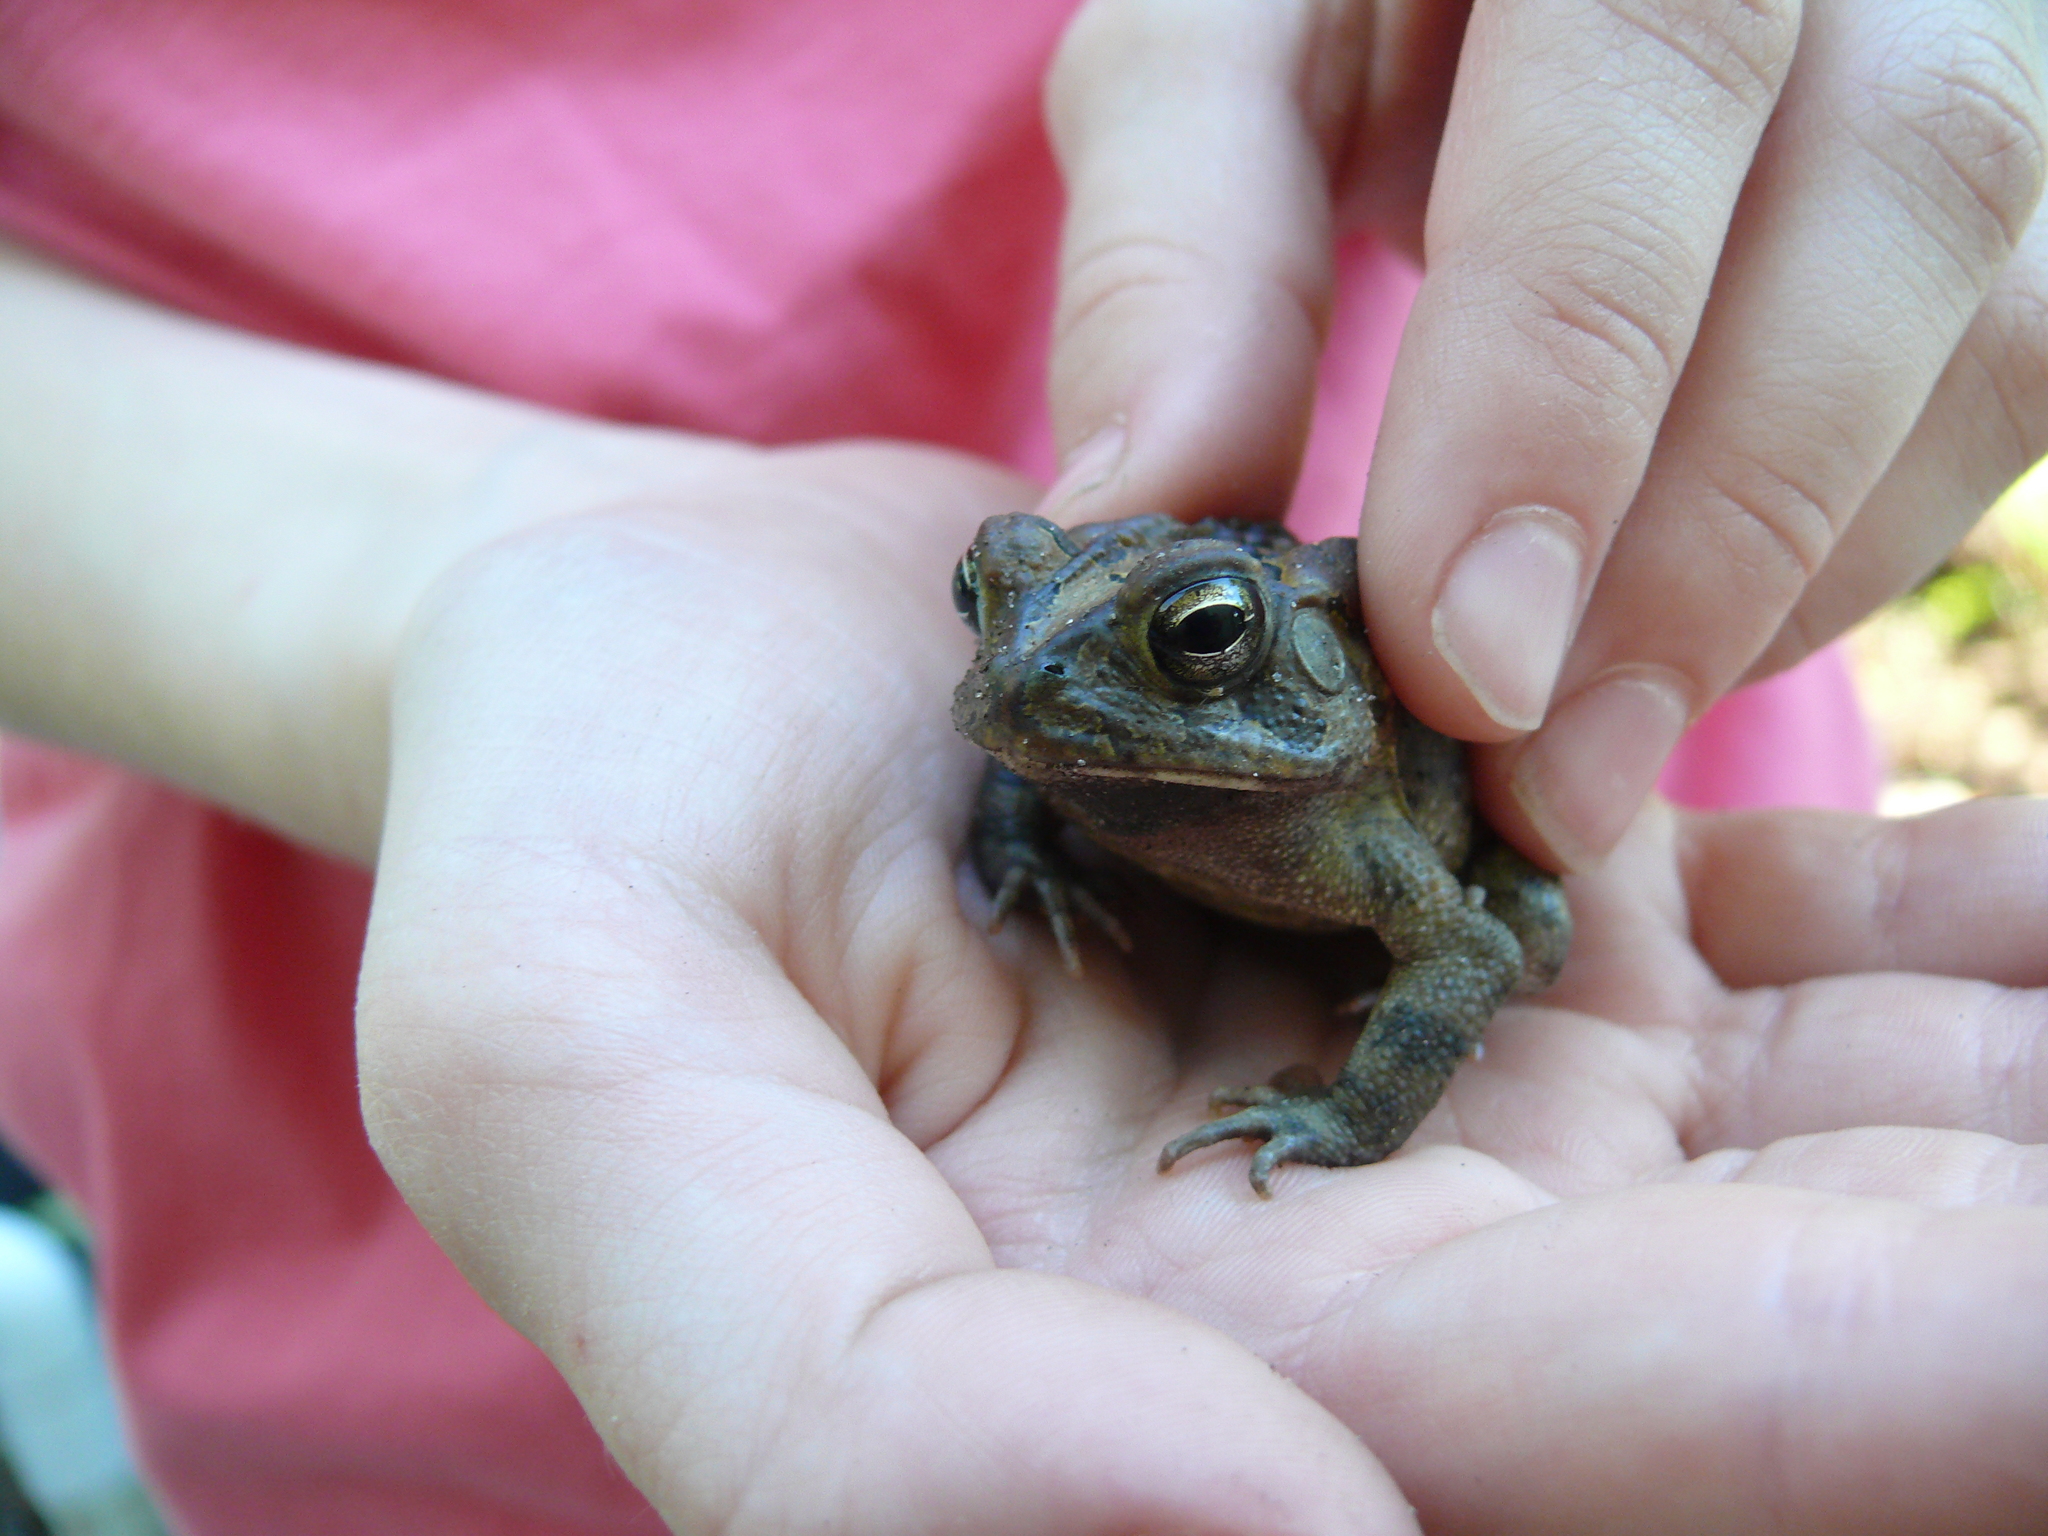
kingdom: Animalia
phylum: Chordata
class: Amphibia
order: Anura
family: Bufonidae
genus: Anaxyrus
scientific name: Anaxyrus terrestris
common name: Southern toad
